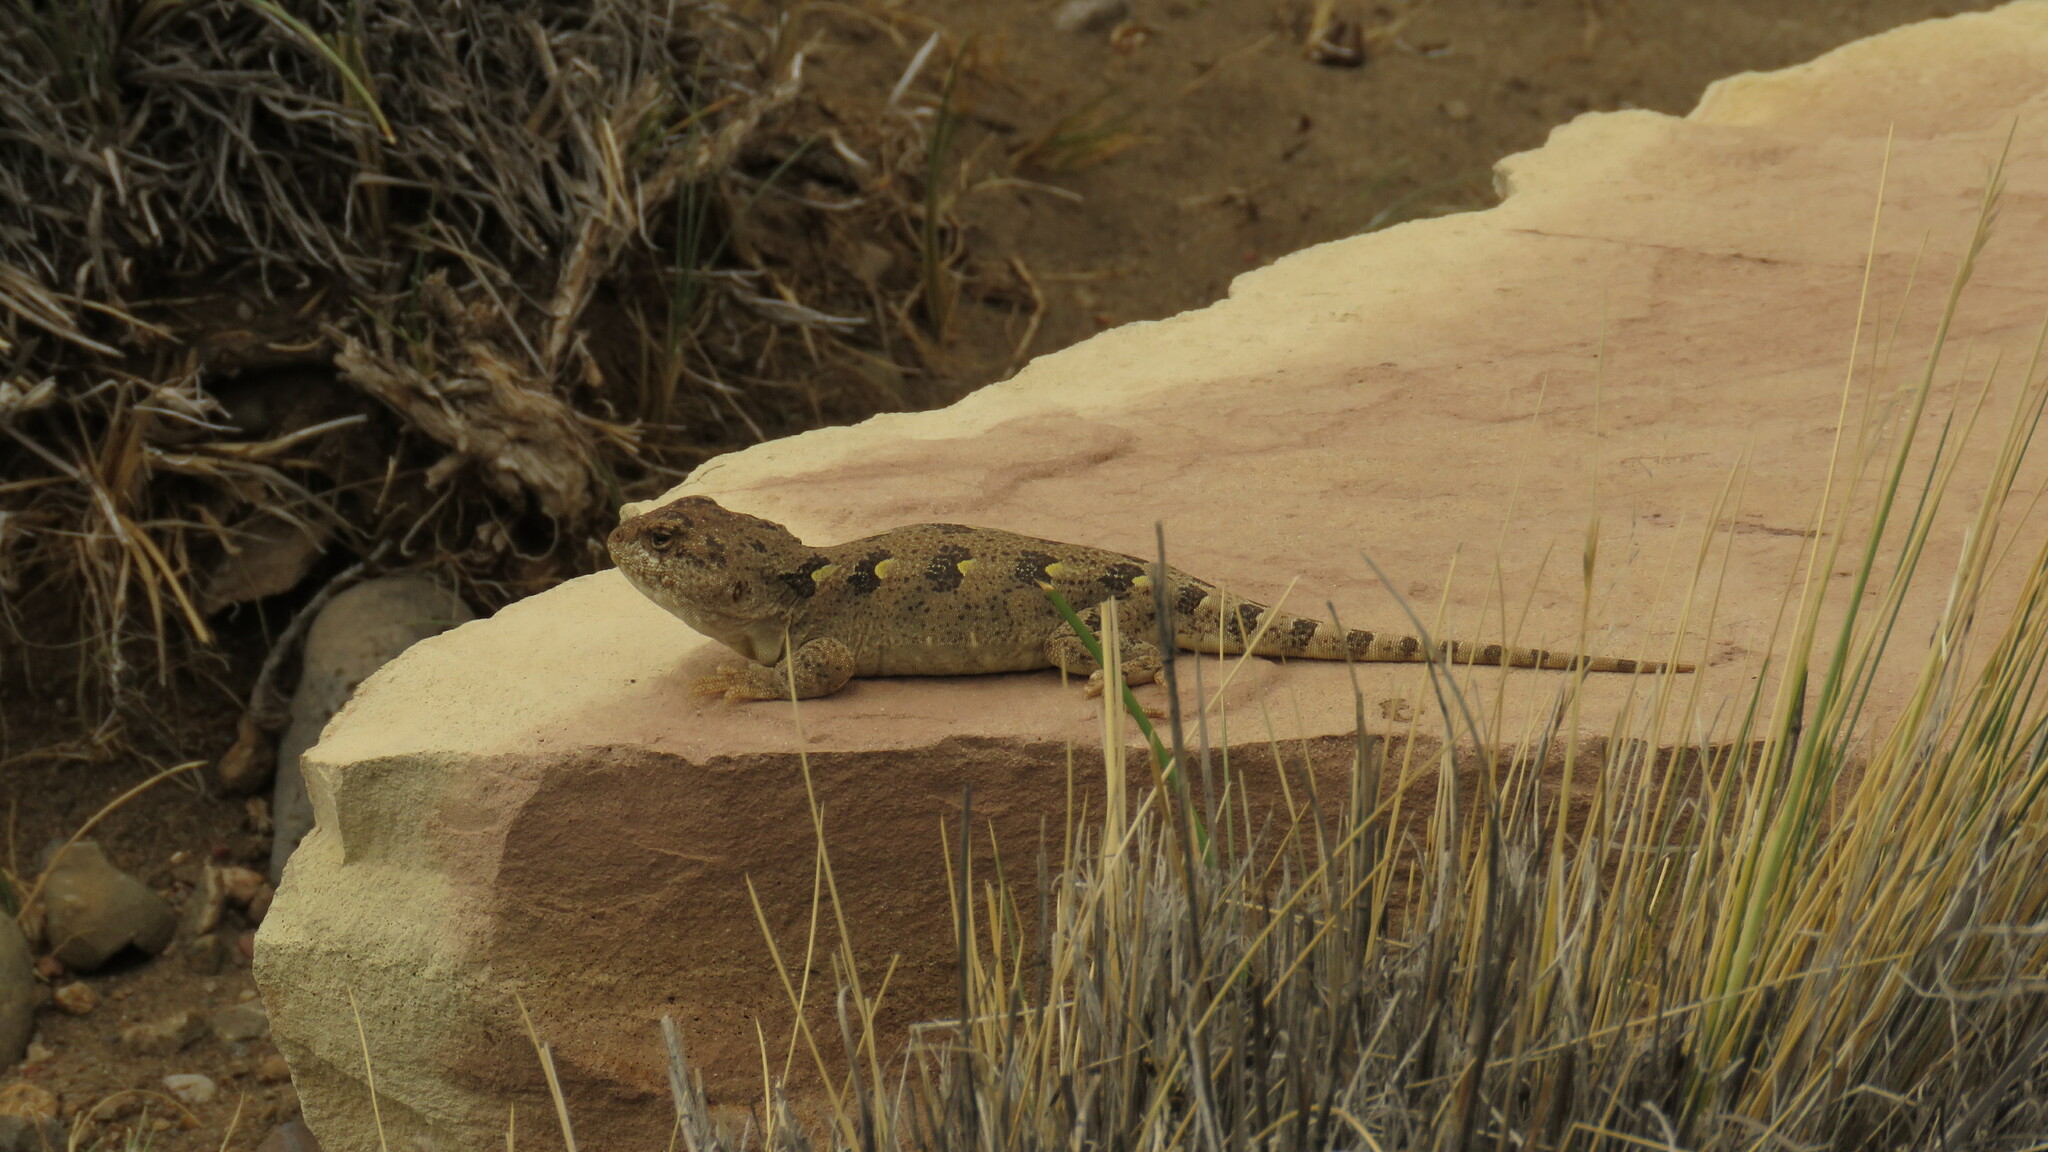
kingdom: Animalia
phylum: Chordata
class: Squamata
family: Leiosauridae
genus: Diplolaemus
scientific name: Diplolaemus bibronii
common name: Bibron's iguana
